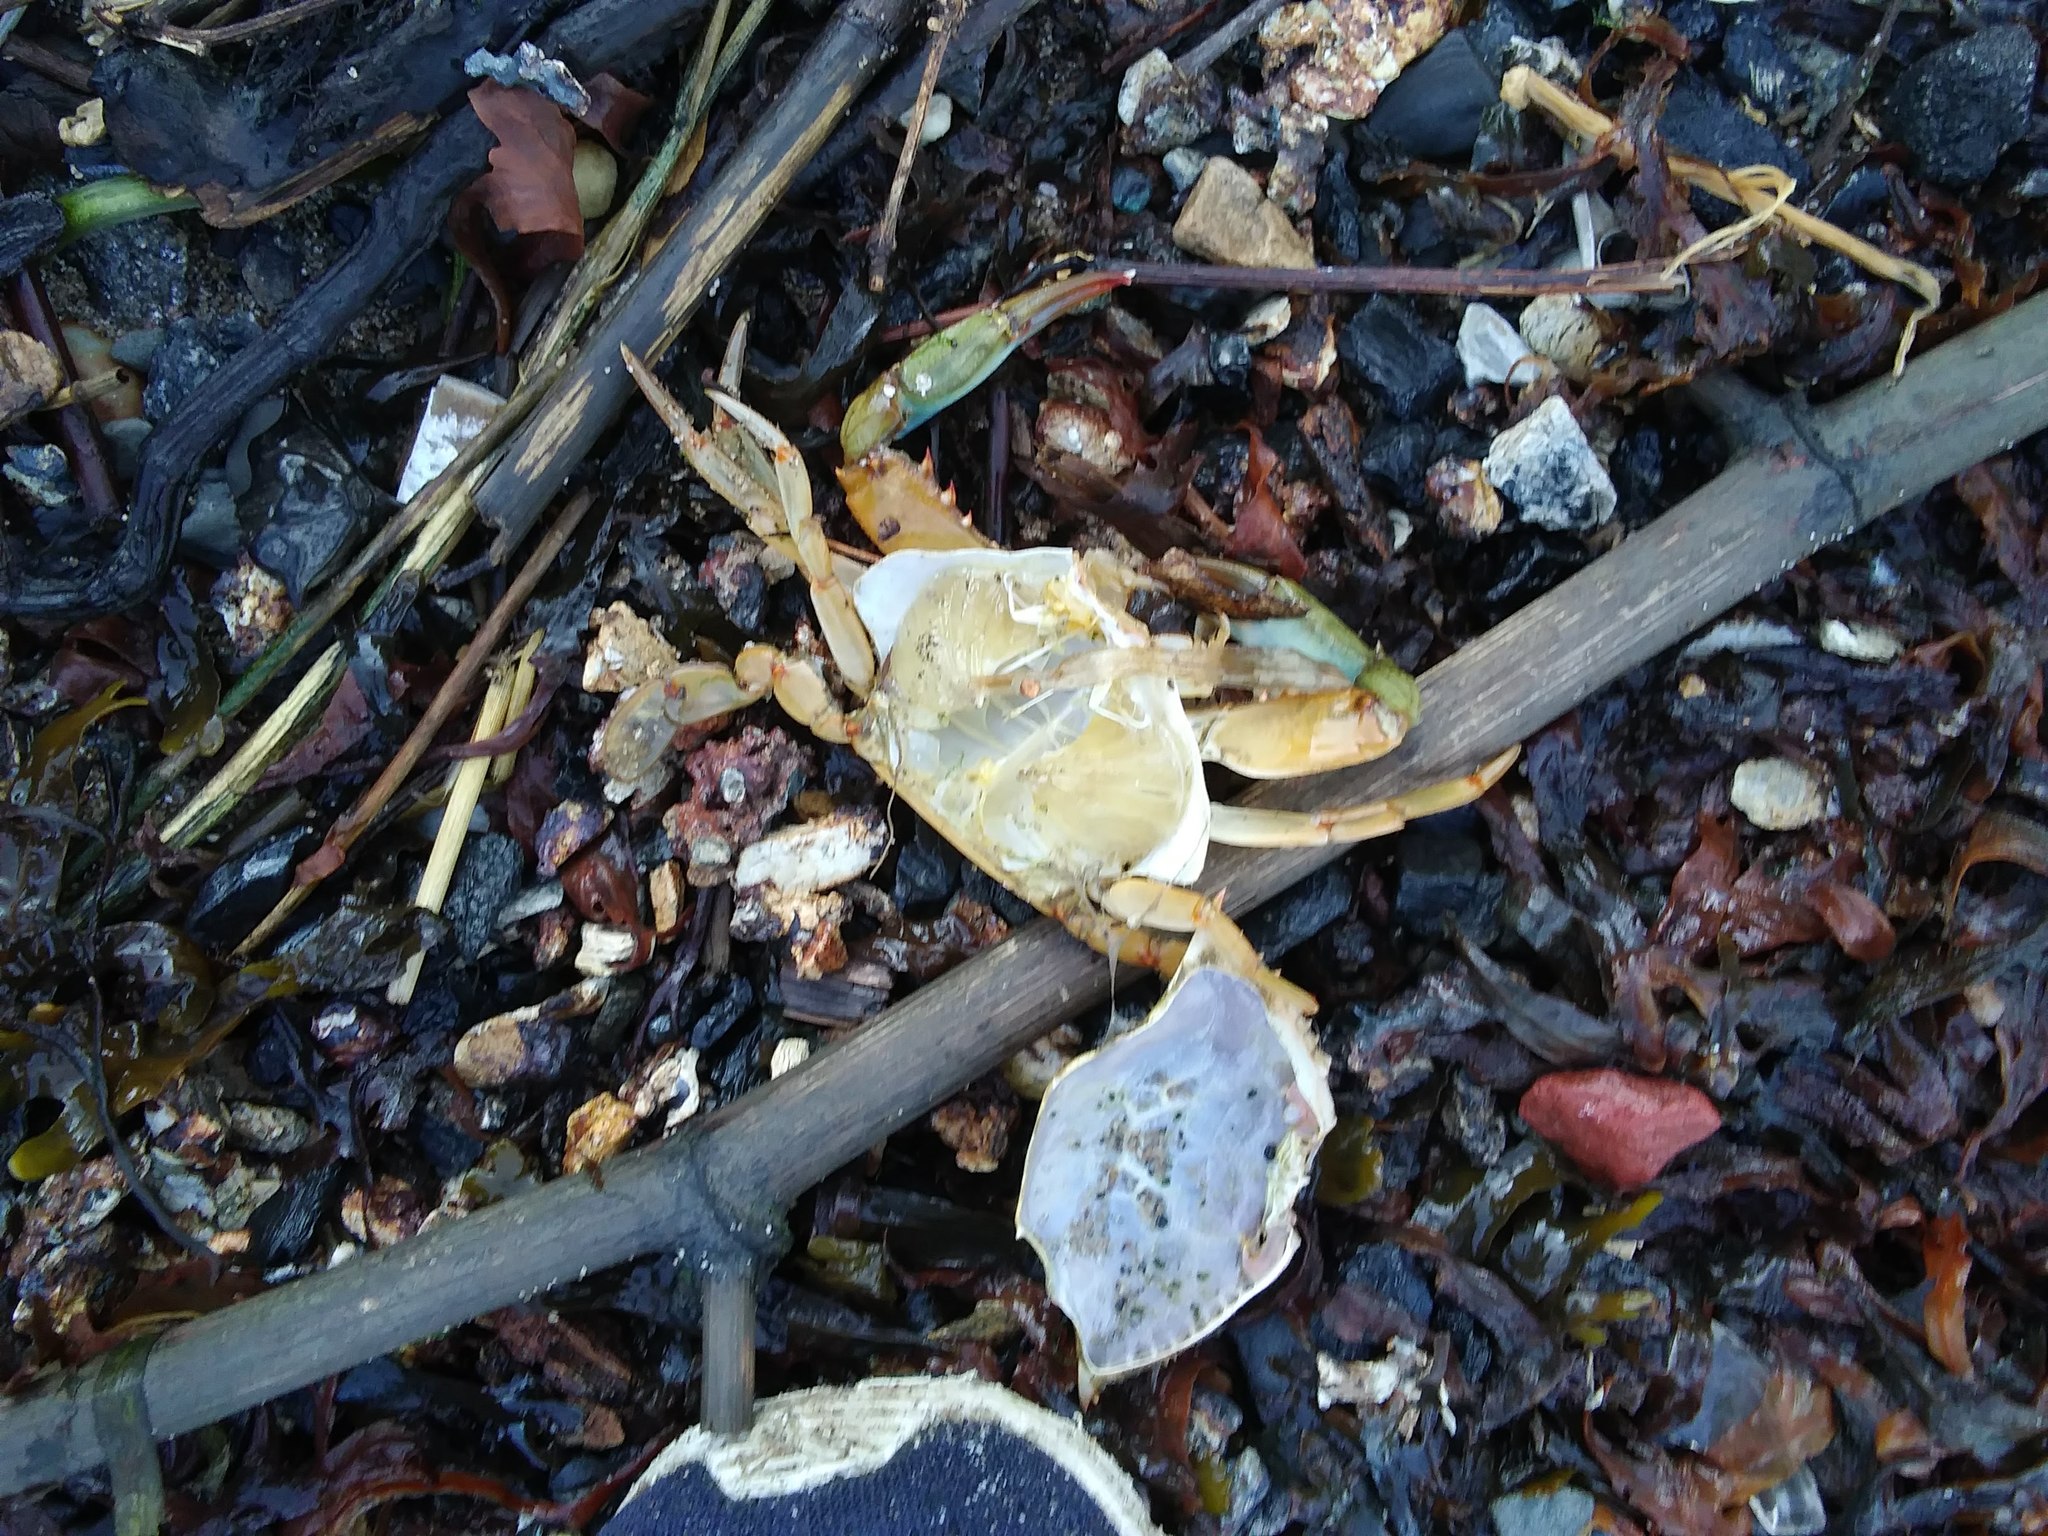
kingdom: Animalia
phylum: Arthropoda
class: Malacostraca
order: Decapoda
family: Portunidae
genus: Callinectes
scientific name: Callinectes sapidus
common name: Blue crab
